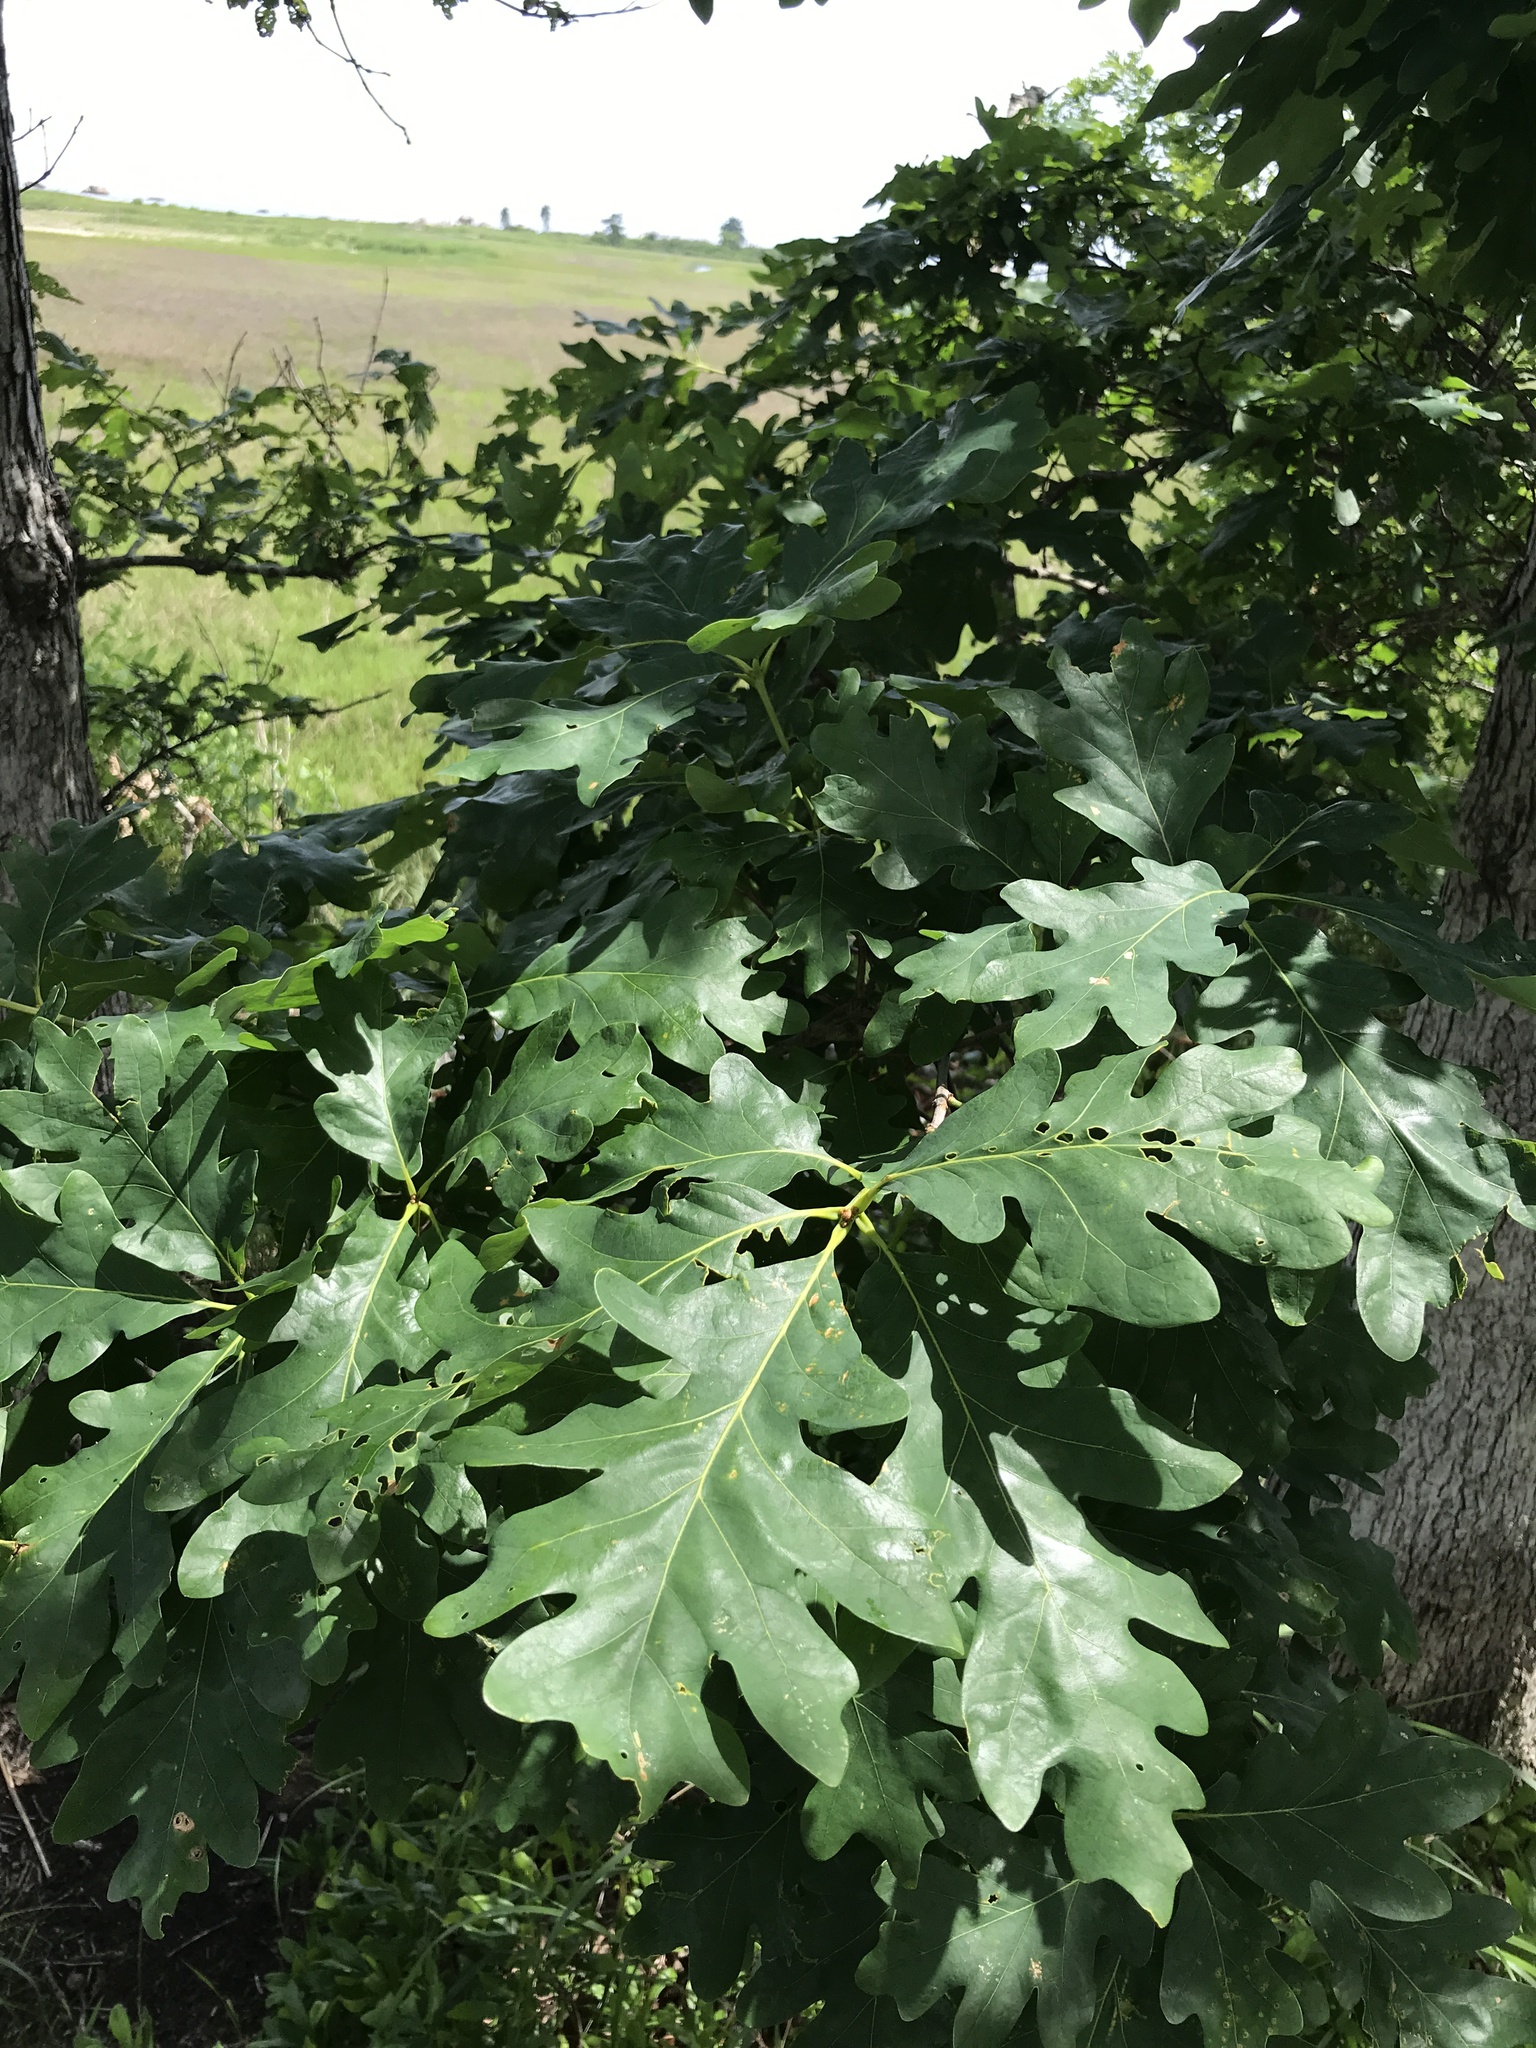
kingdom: Plantae
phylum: Tracheophyta
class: Magnoliopsida
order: Fagales
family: Fagaceae
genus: Quercus
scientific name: Quercus alba
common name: White oak
